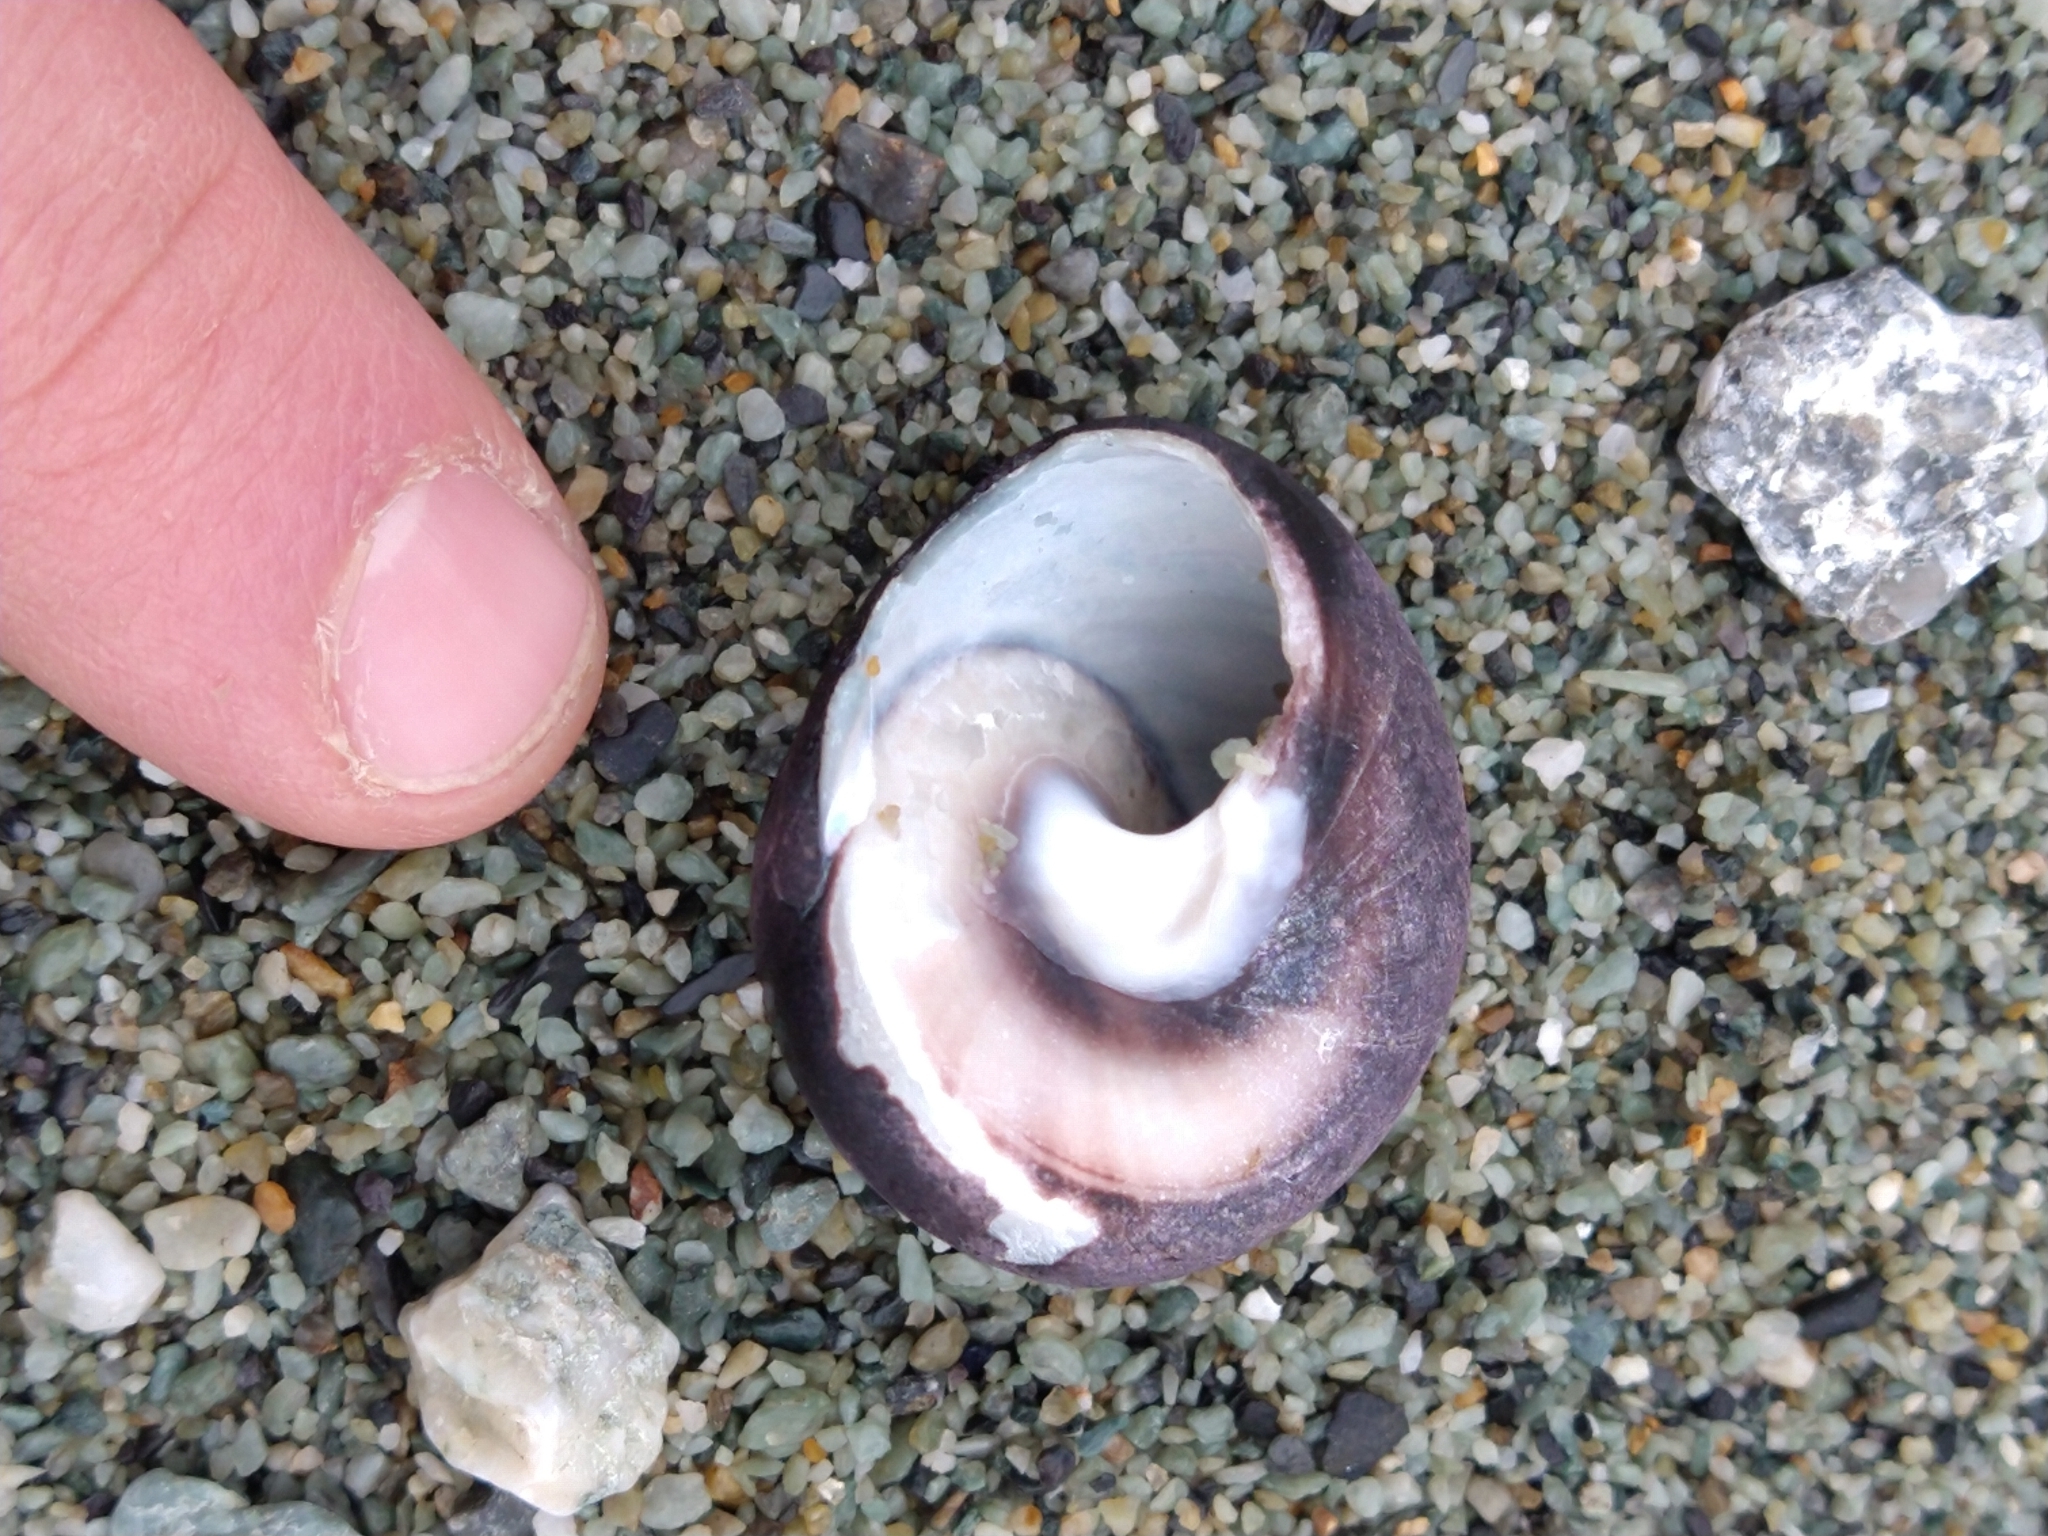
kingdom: Animalia
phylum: Mollusca
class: Gastropoda
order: Trochida
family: Tegulidae
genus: Tegula
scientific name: Tegula atra
